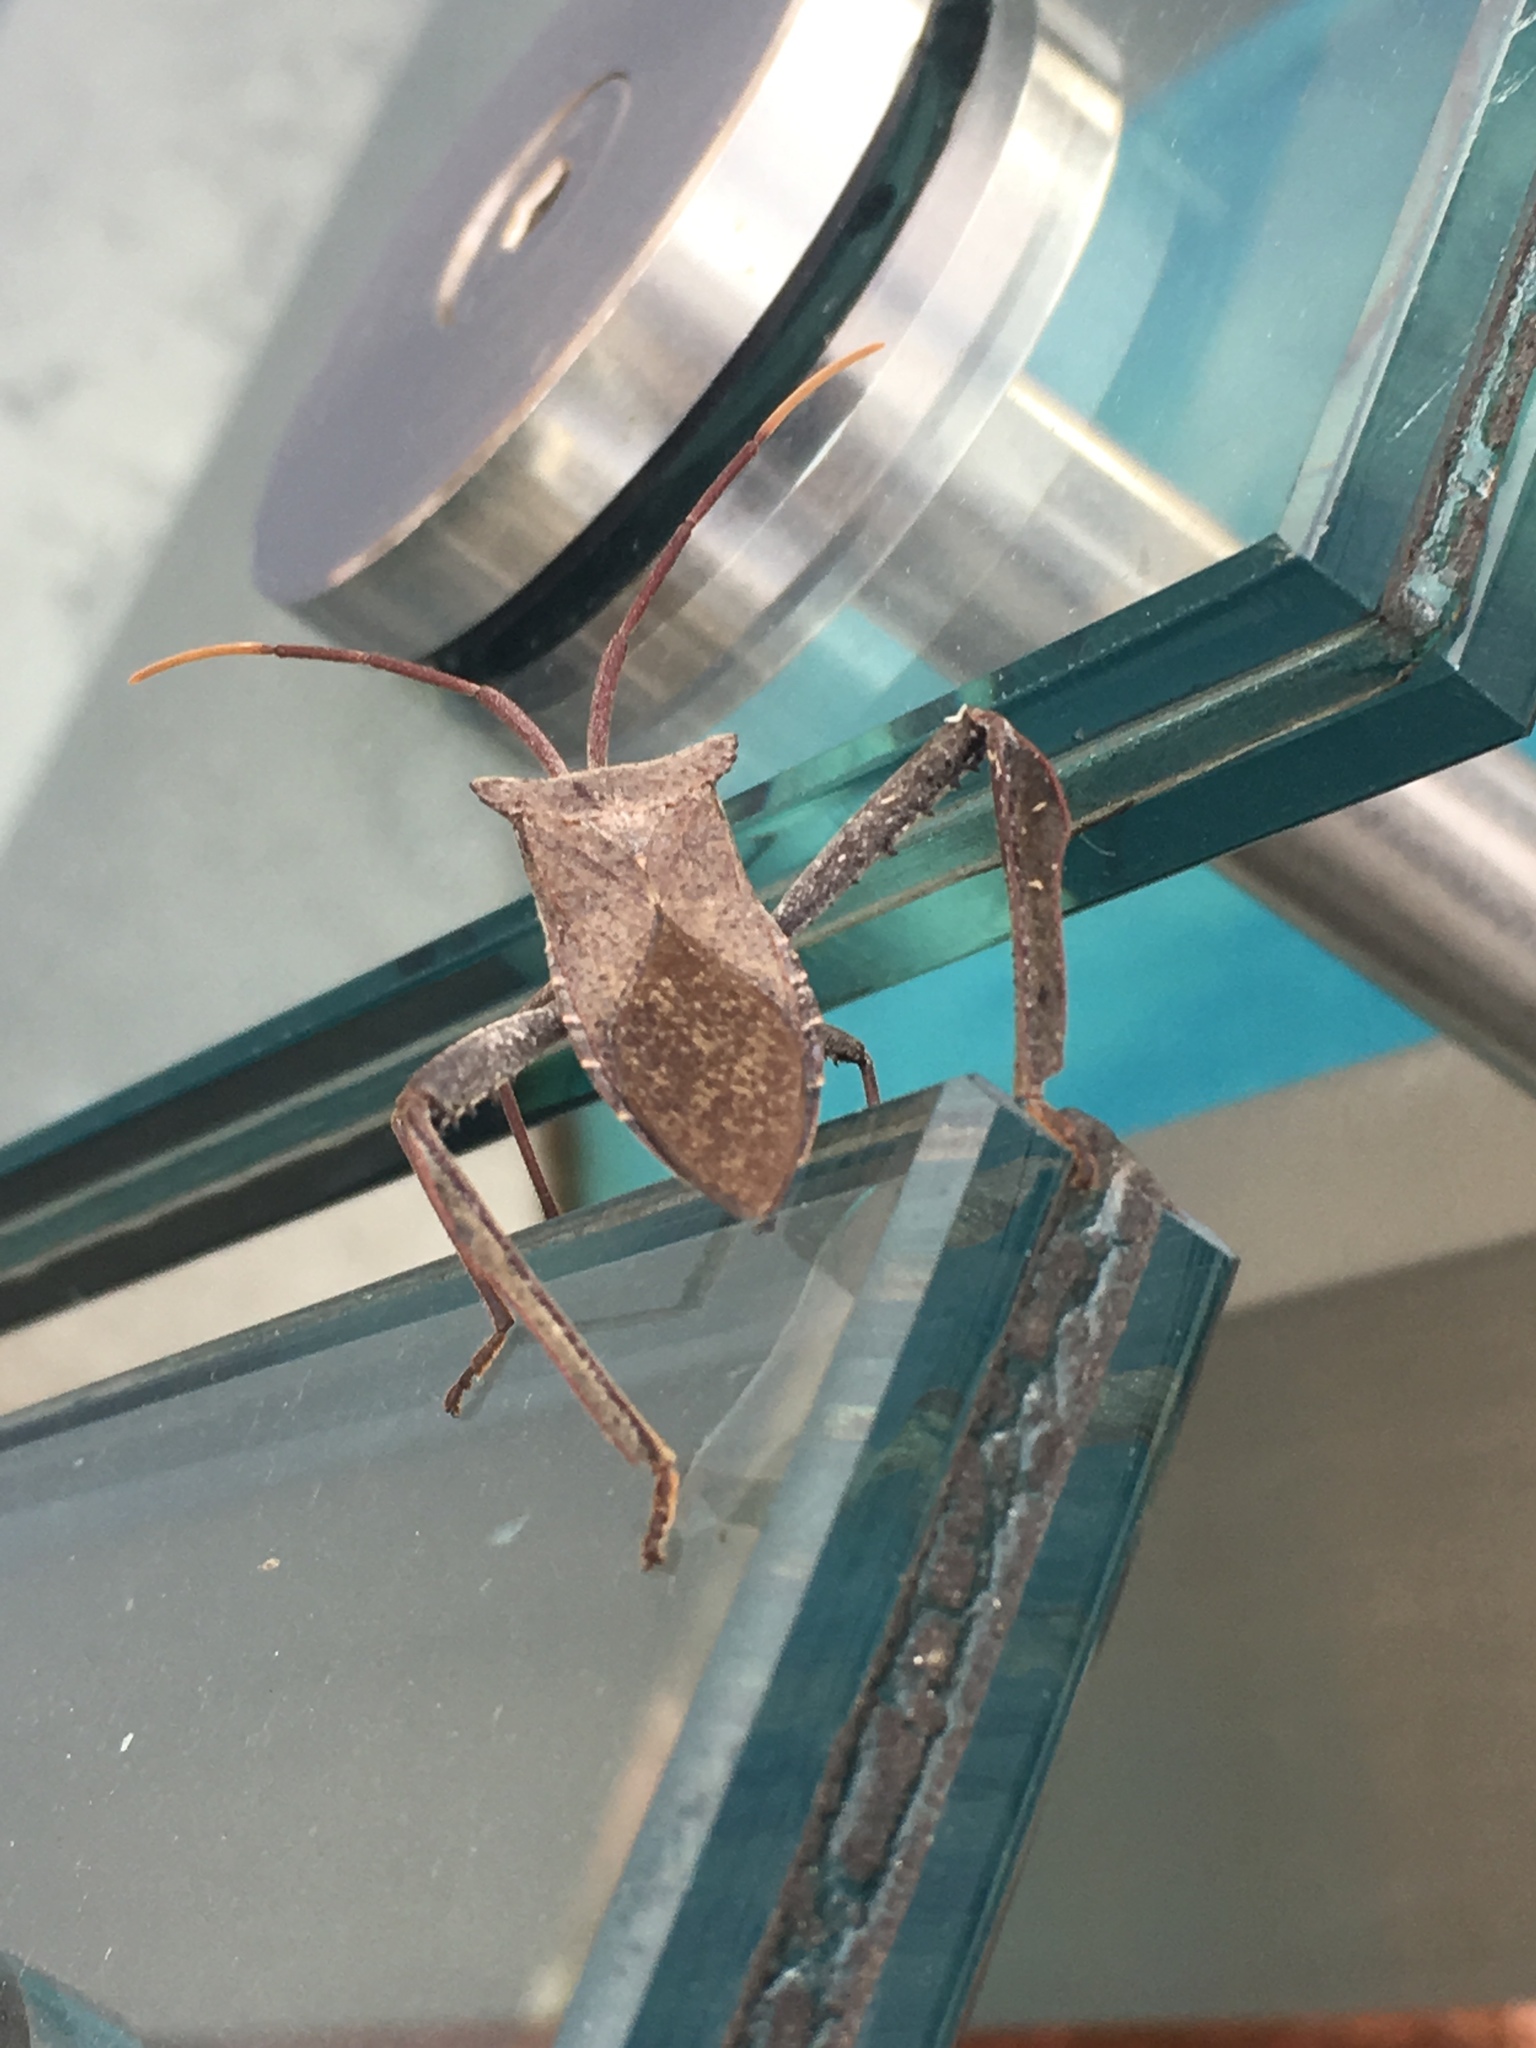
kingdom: Animalia
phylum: Arthropoda
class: Insecta
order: Hemiptera
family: Coreidae
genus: Acanthocephala
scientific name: Acanthocephala declivis
